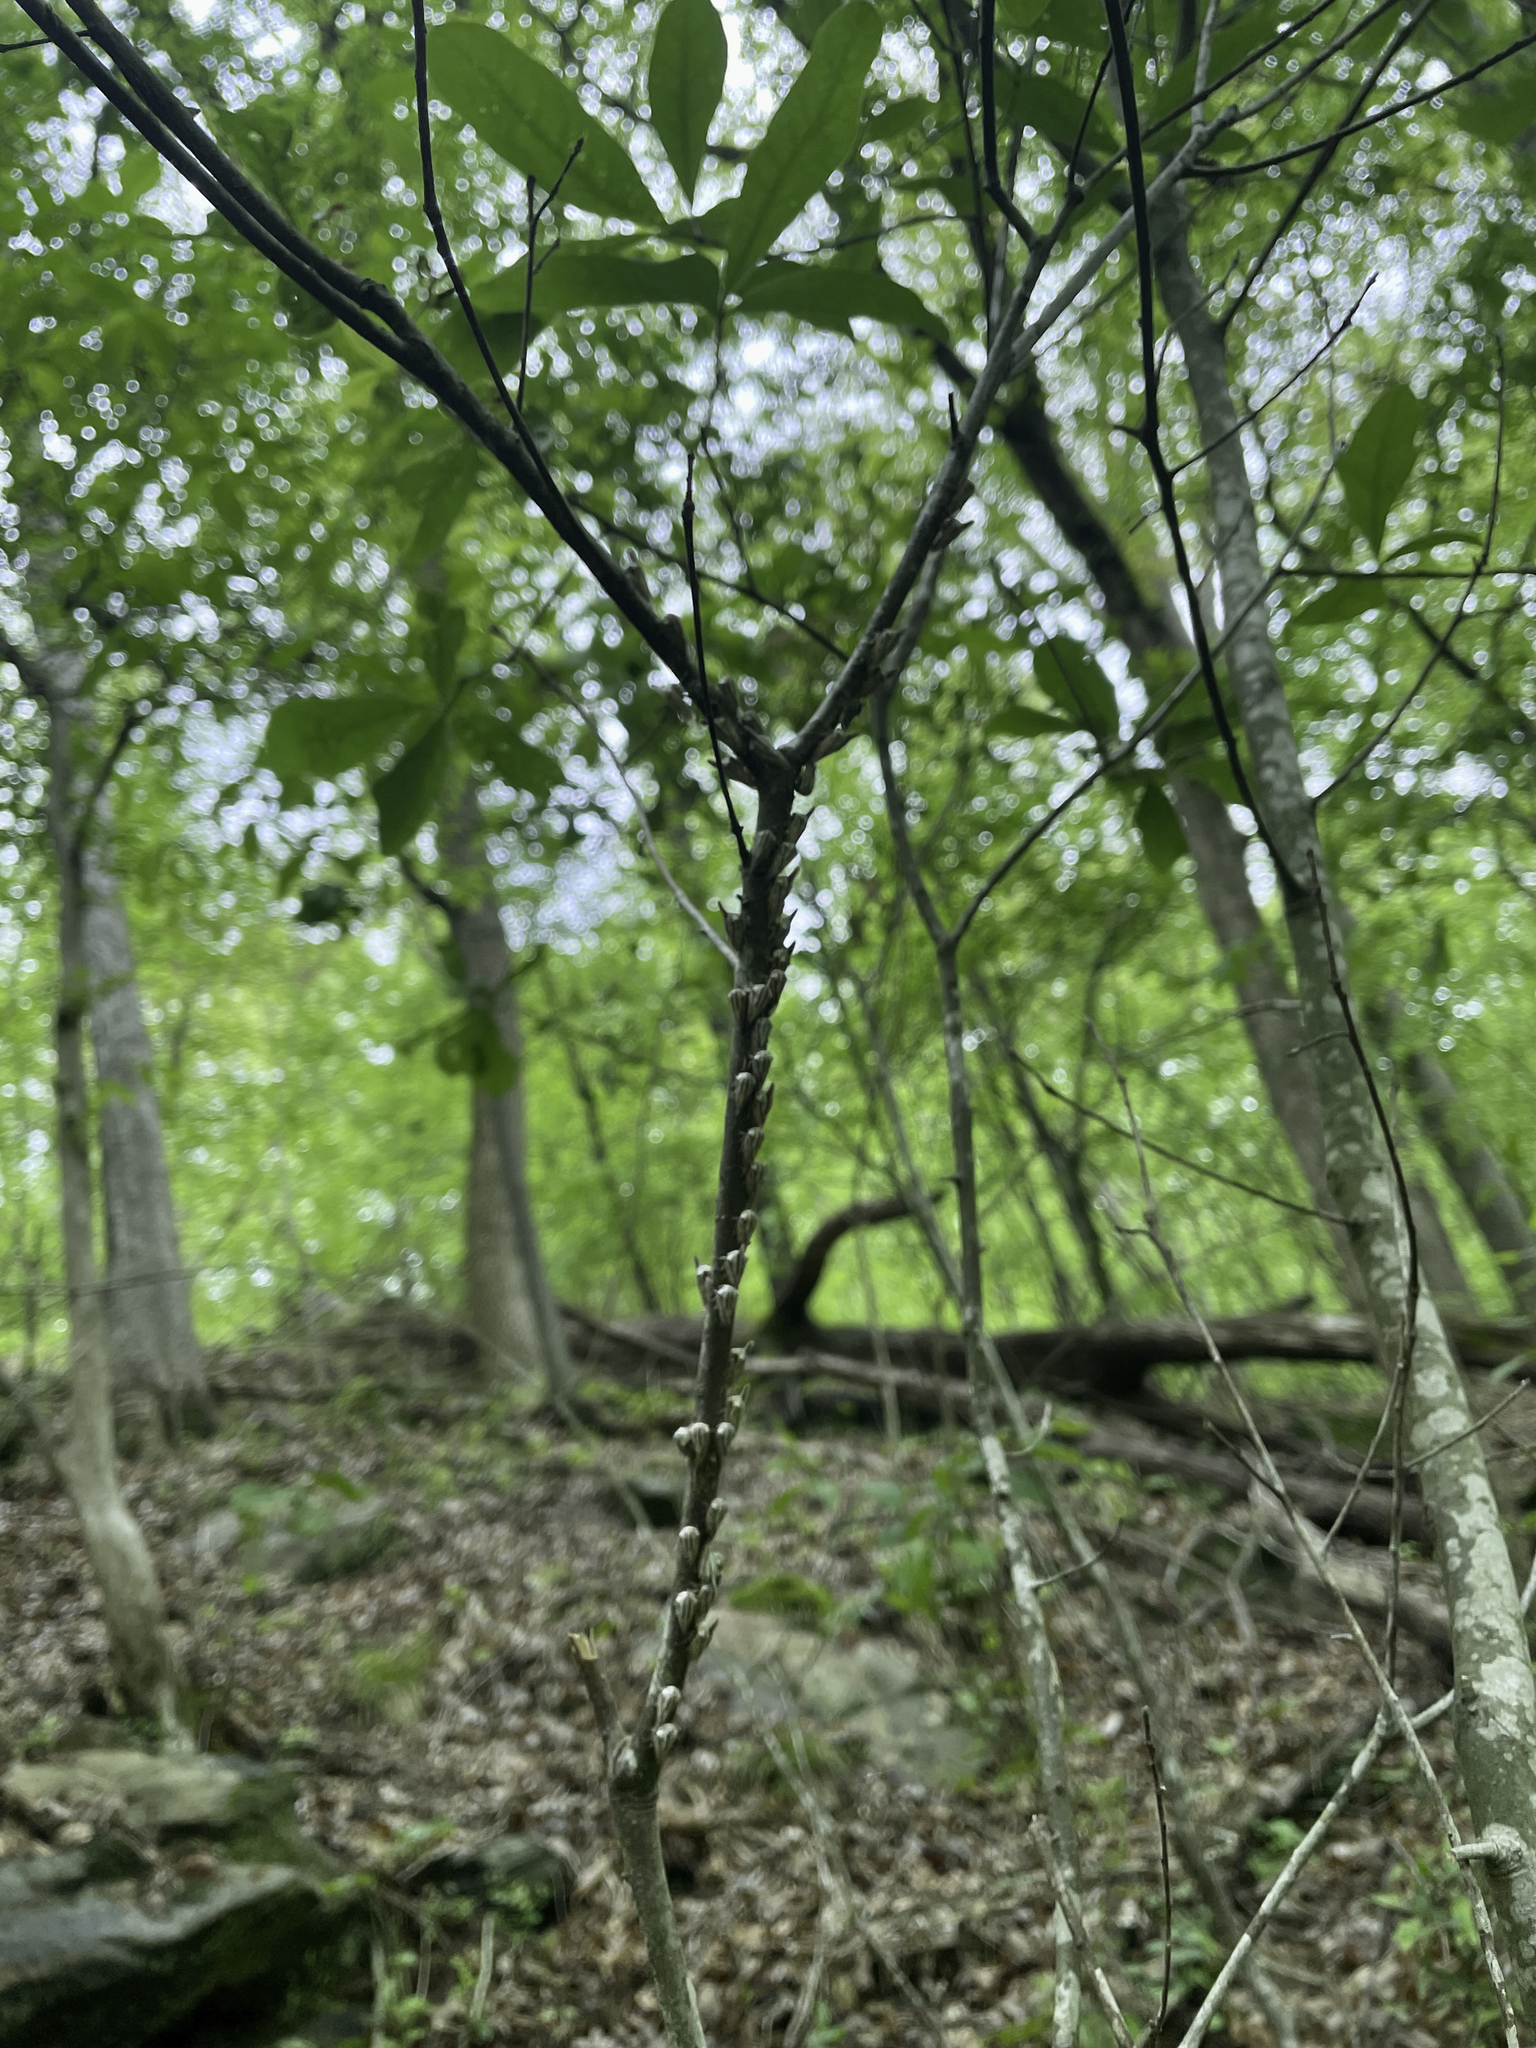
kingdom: Animalia
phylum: Arthropoda
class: Insecta
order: Hemiptera
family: Membracidae
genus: Platycotis
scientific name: Platycotis vittatus
